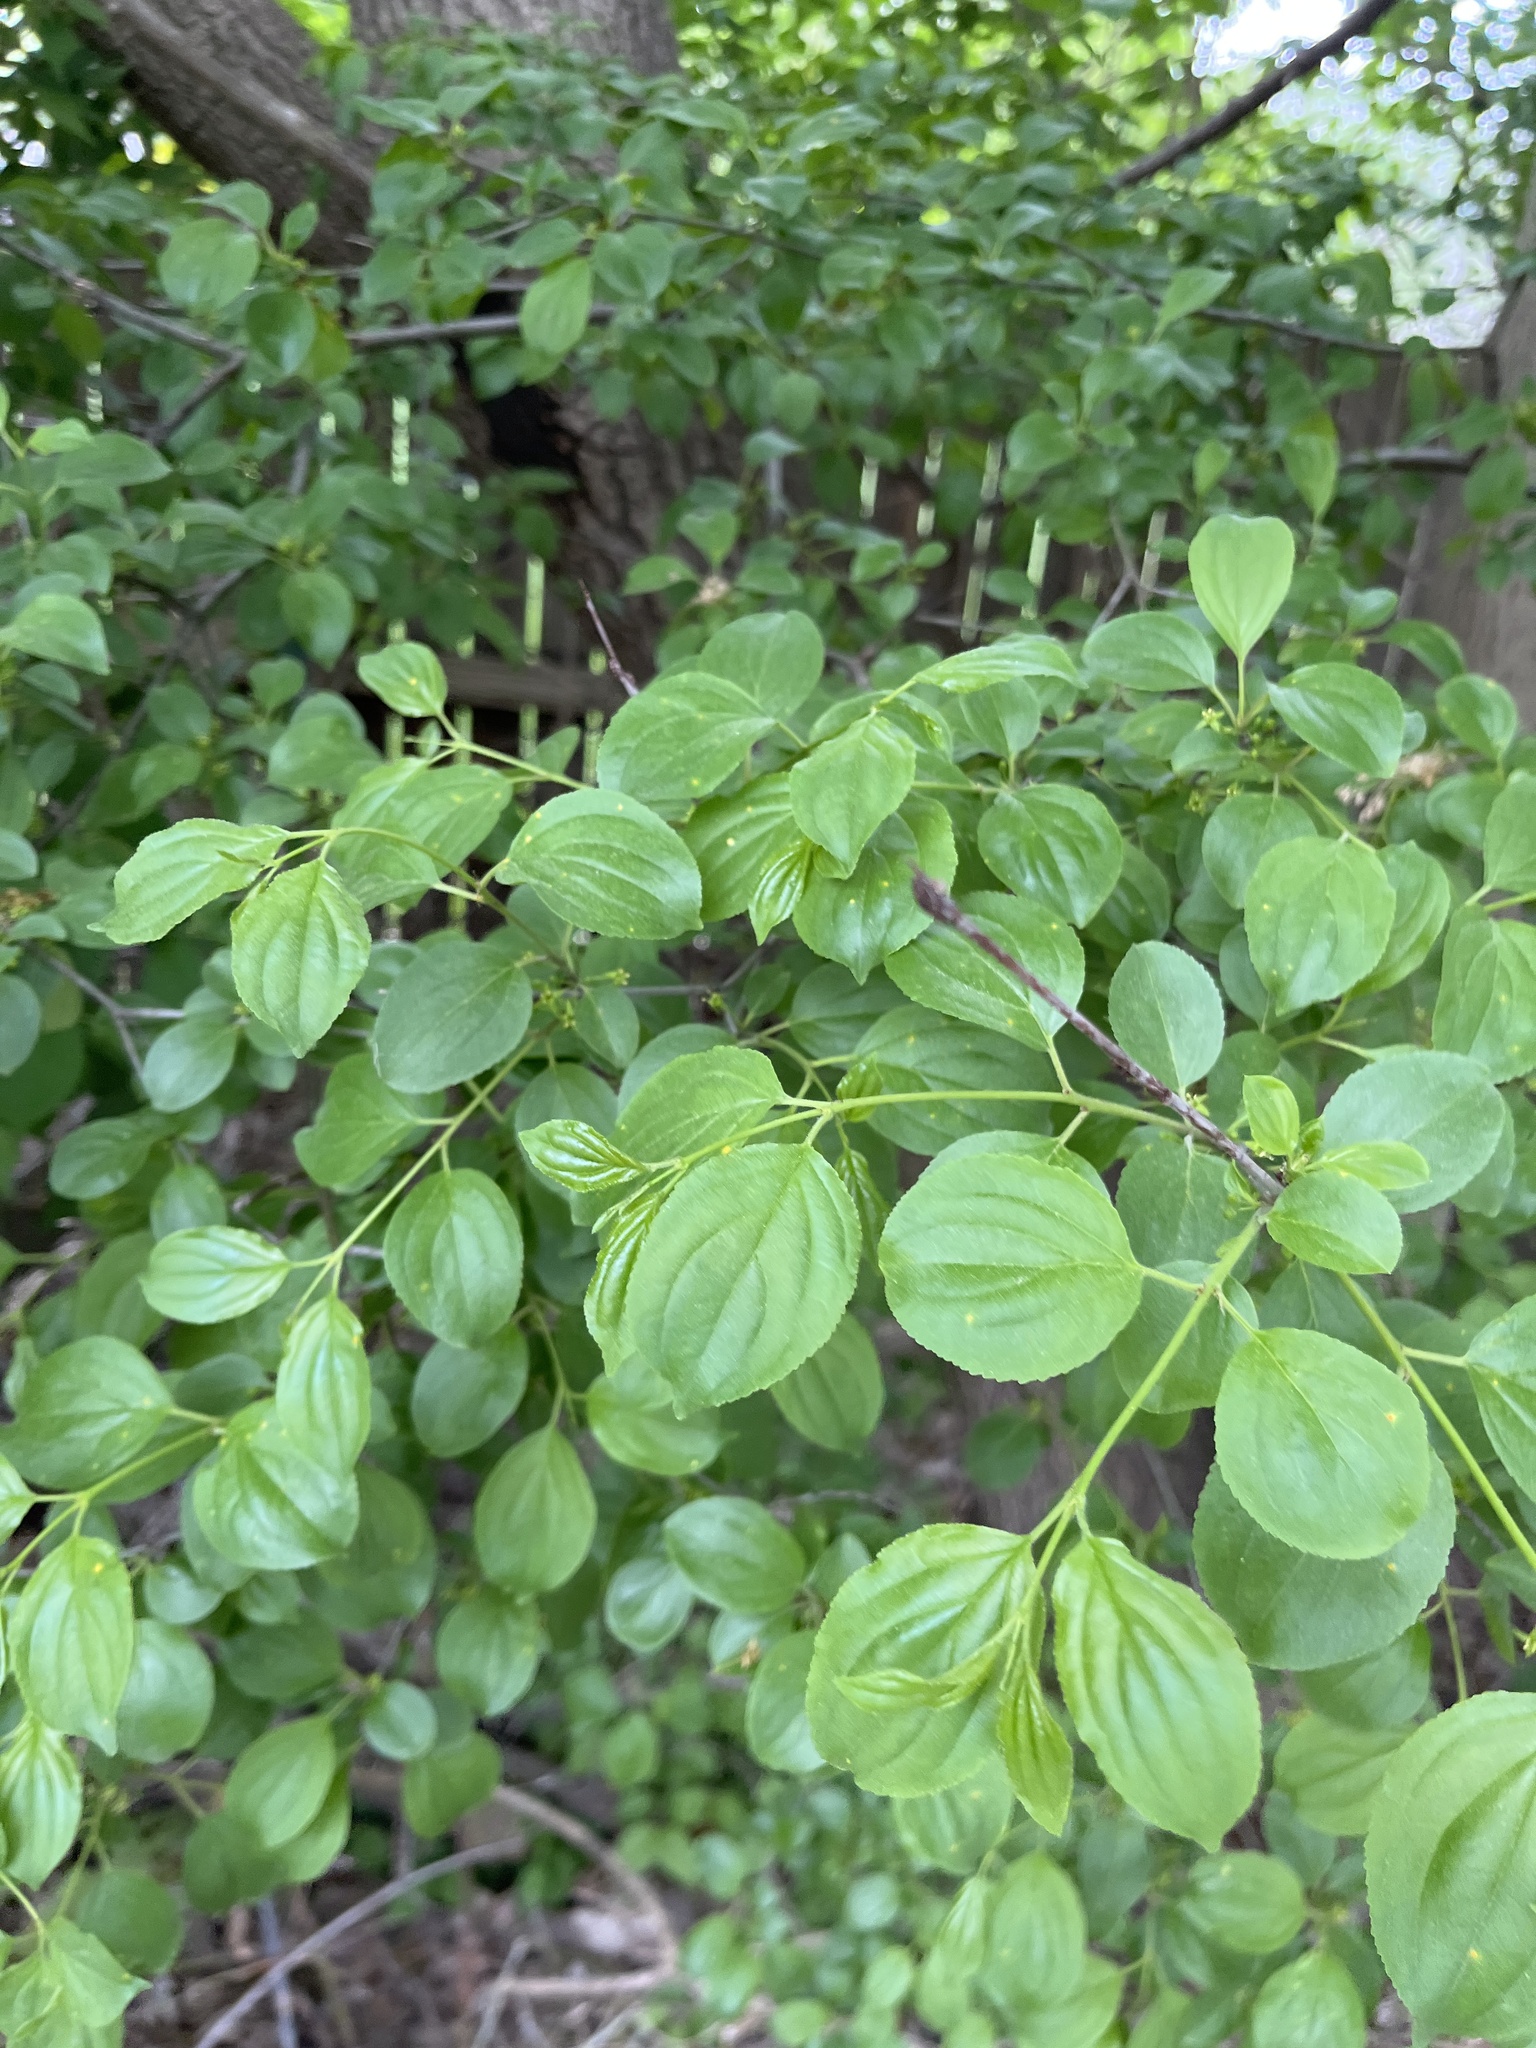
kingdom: Plantae
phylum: Tracheophyta
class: Magnoliopsida
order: Rosales
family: Rhamnaceae
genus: Rhamnus
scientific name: Rhamnus cathartica
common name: Common buckthorn
